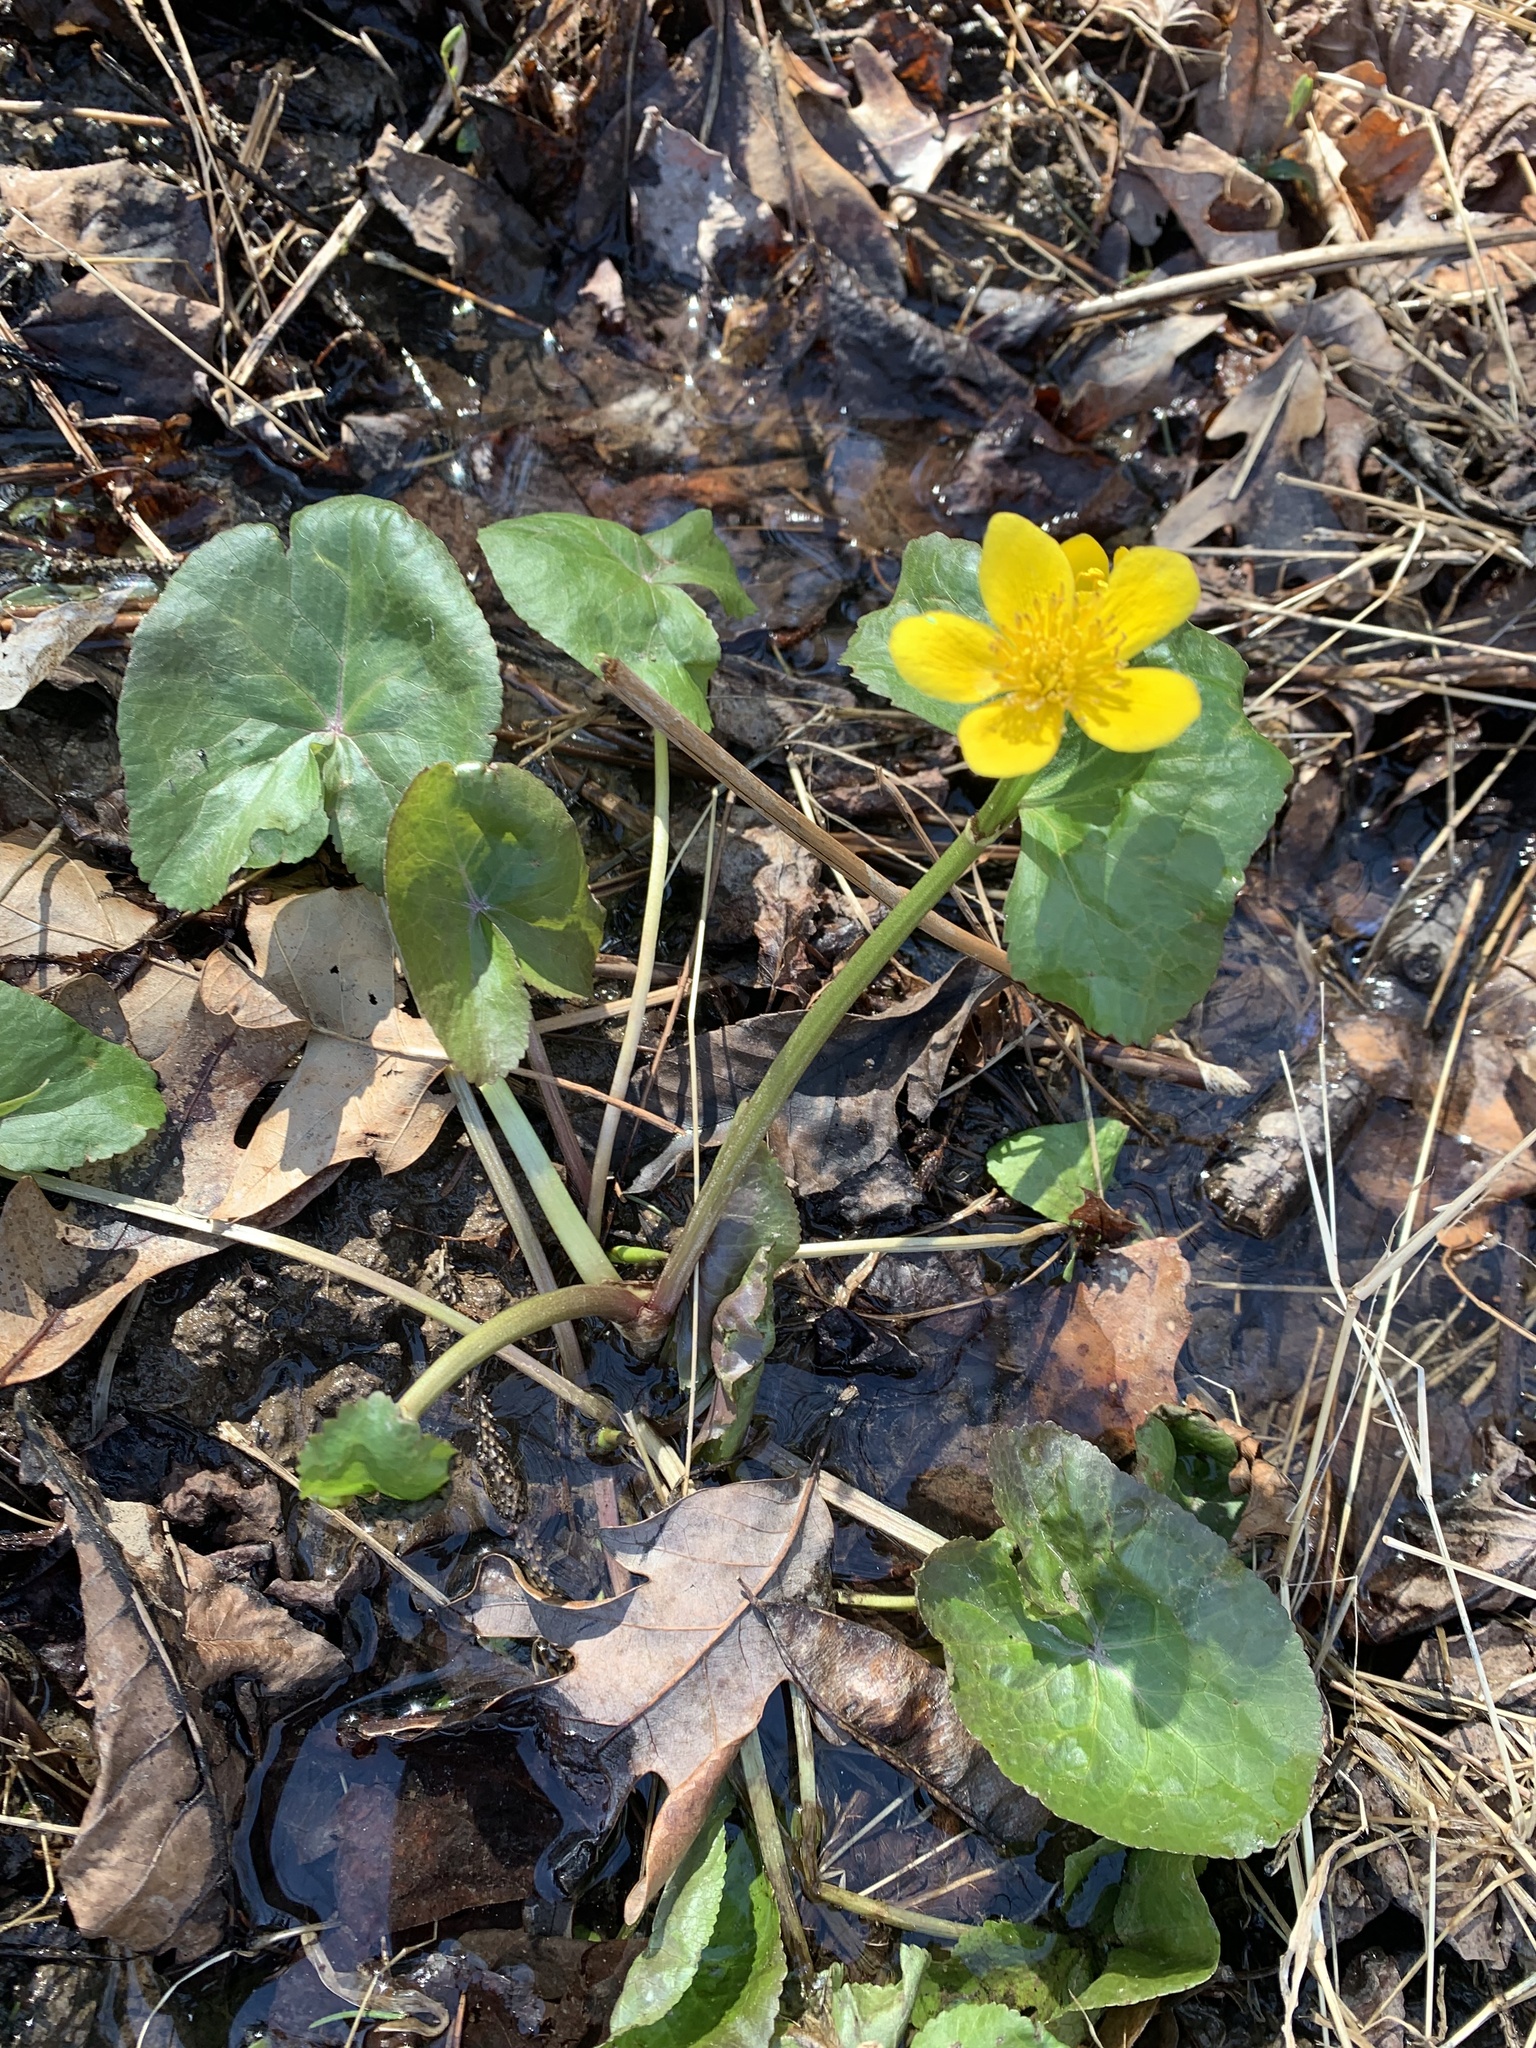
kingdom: Plantae
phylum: Tracheophyta
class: Magnoliopsida
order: Ranunculales
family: Ranunculaceae
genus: Caltha
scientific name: Caltha palustris
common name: Marsh marigold
